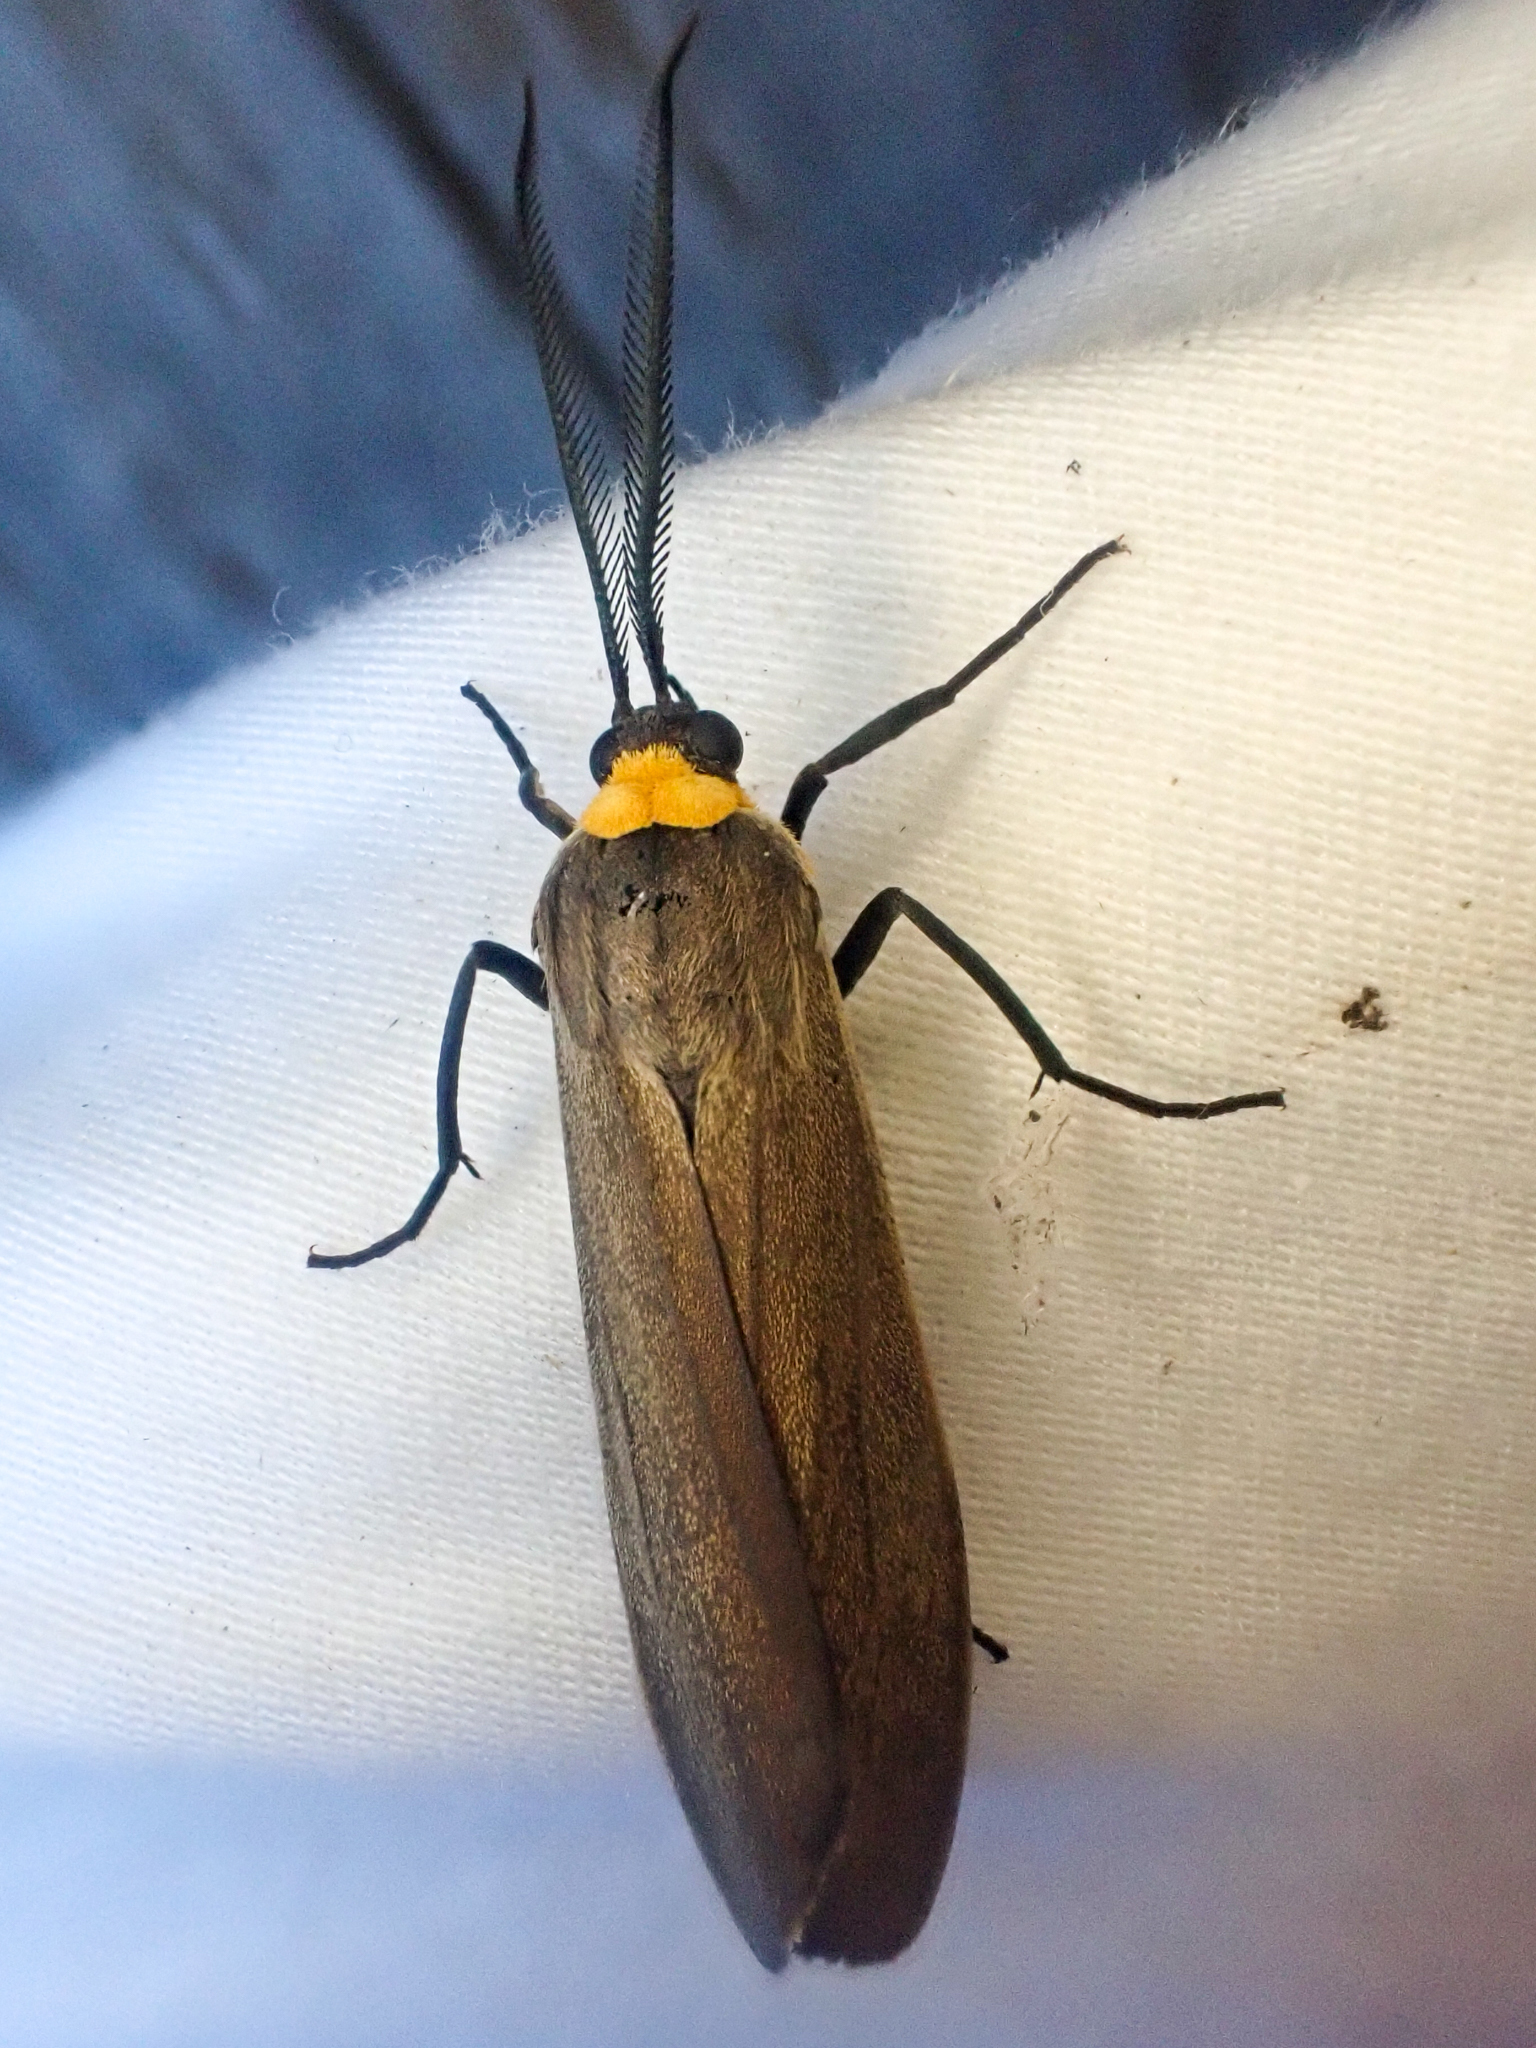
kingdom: Animalia
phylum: Arthropoda
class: Insecta
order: Lepidoptera
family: Erebidae
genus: Cisseps
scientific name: Cisseps fulvicollis
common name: Yellow-collared scape moth
